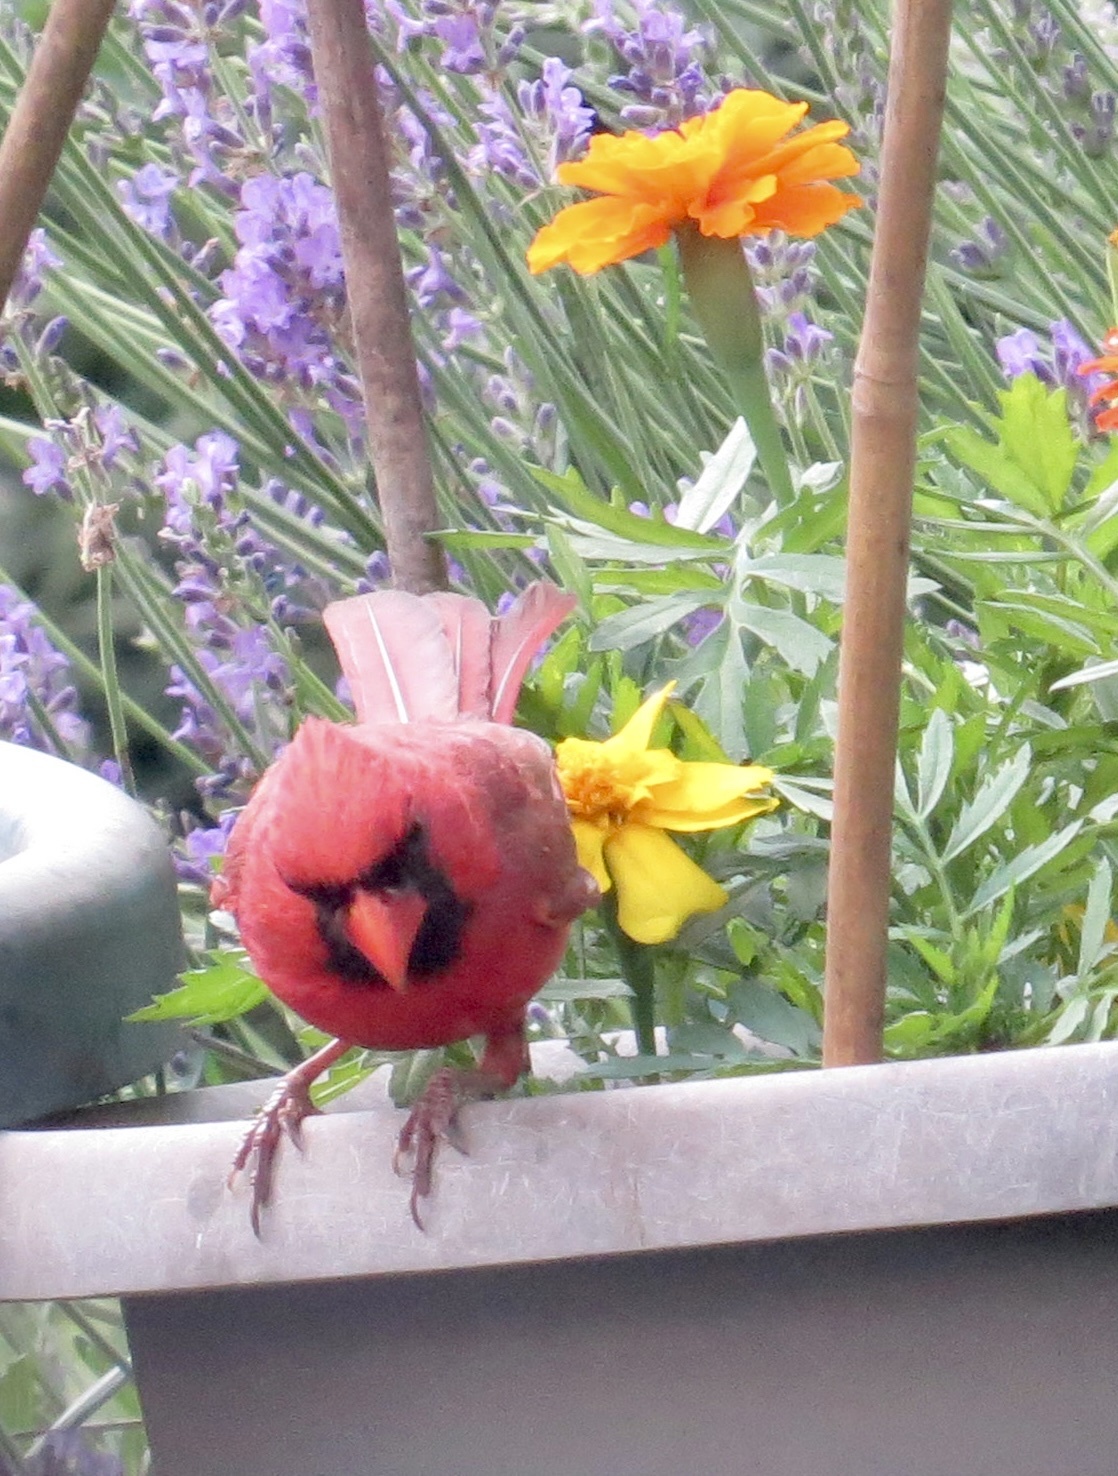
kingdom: Animalia
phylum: Chordata
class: Aves
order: Passeriformes
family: Cardinalidae
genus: Cardinalis
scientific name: Cardinalis cardinalis
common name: Northern cardinal
